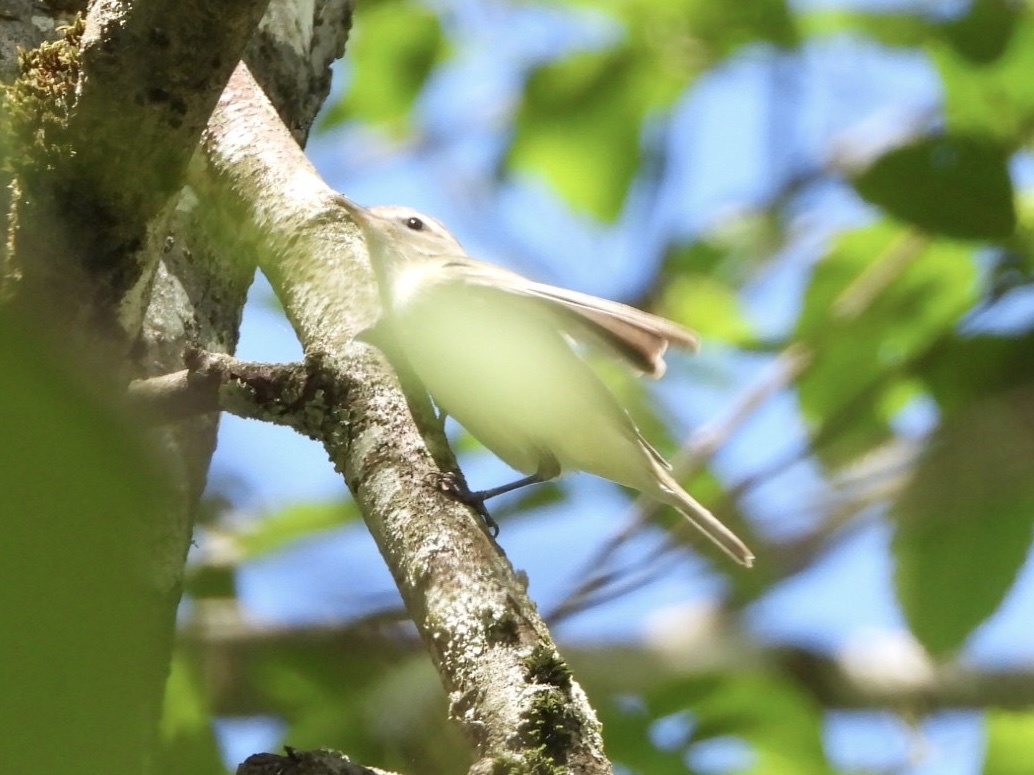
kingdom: Animalia
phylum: Chordata
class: Aves
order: Passeriformes
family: Vireonidae
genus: Vireo
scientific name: Vireo gilvus
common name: Warbling vireo
